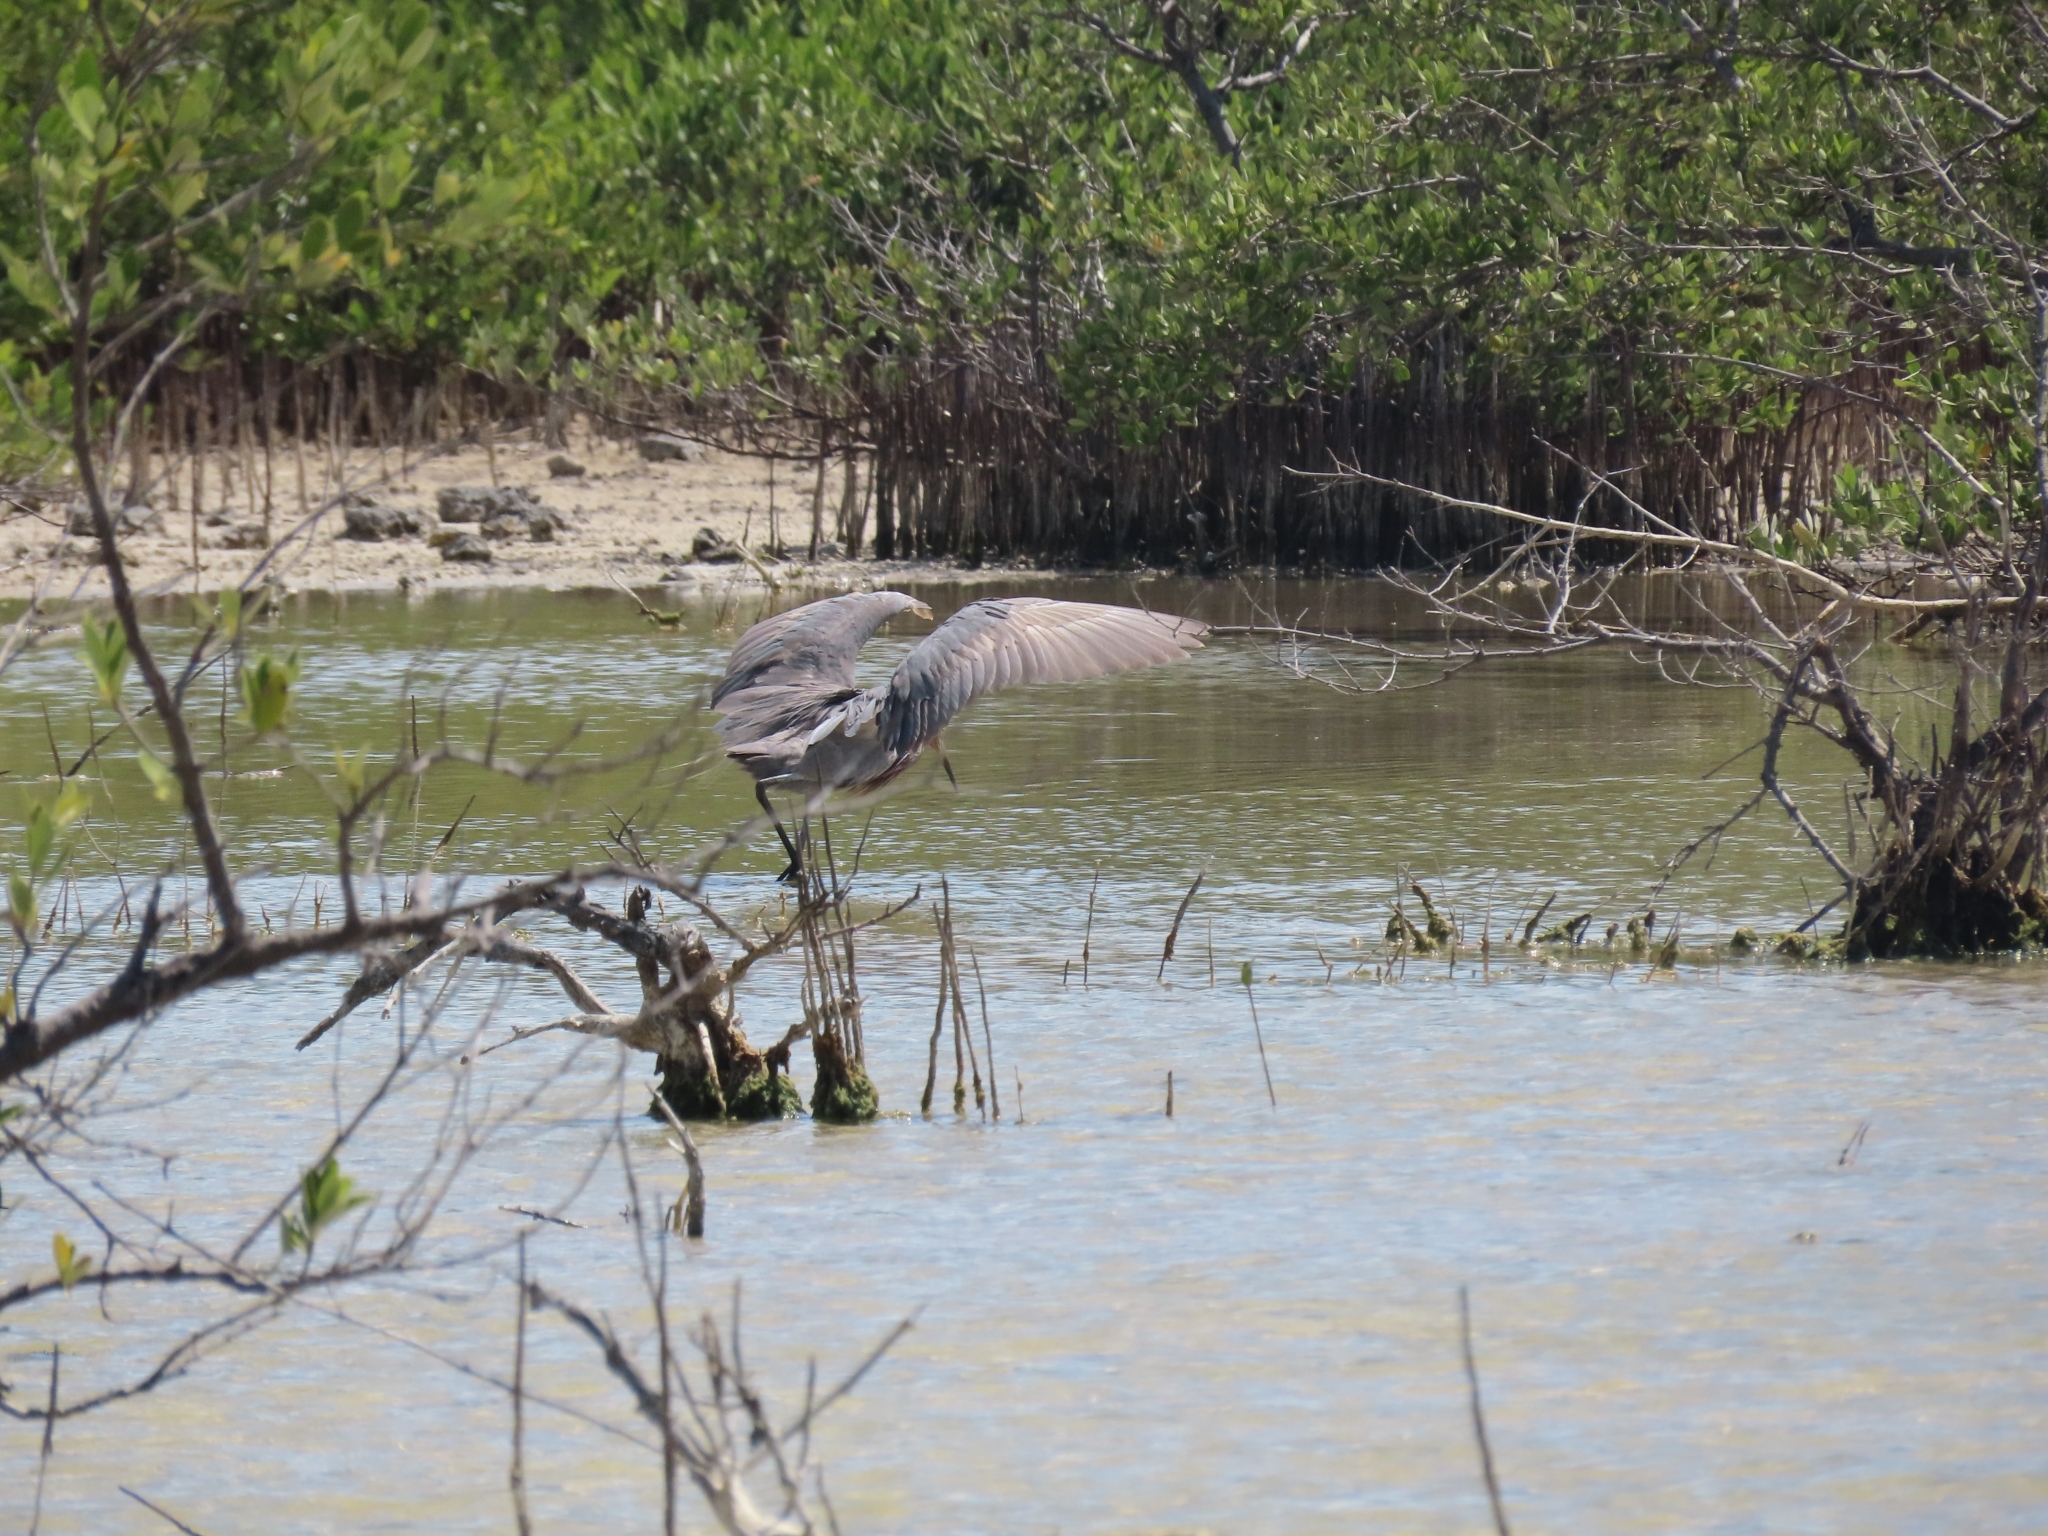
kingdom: Animalia
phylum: Chordata
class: Aves
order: Pelecaniformes
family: Ardeidae
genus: Egretta
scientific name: Egretta rufescens
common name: Reddish egret
